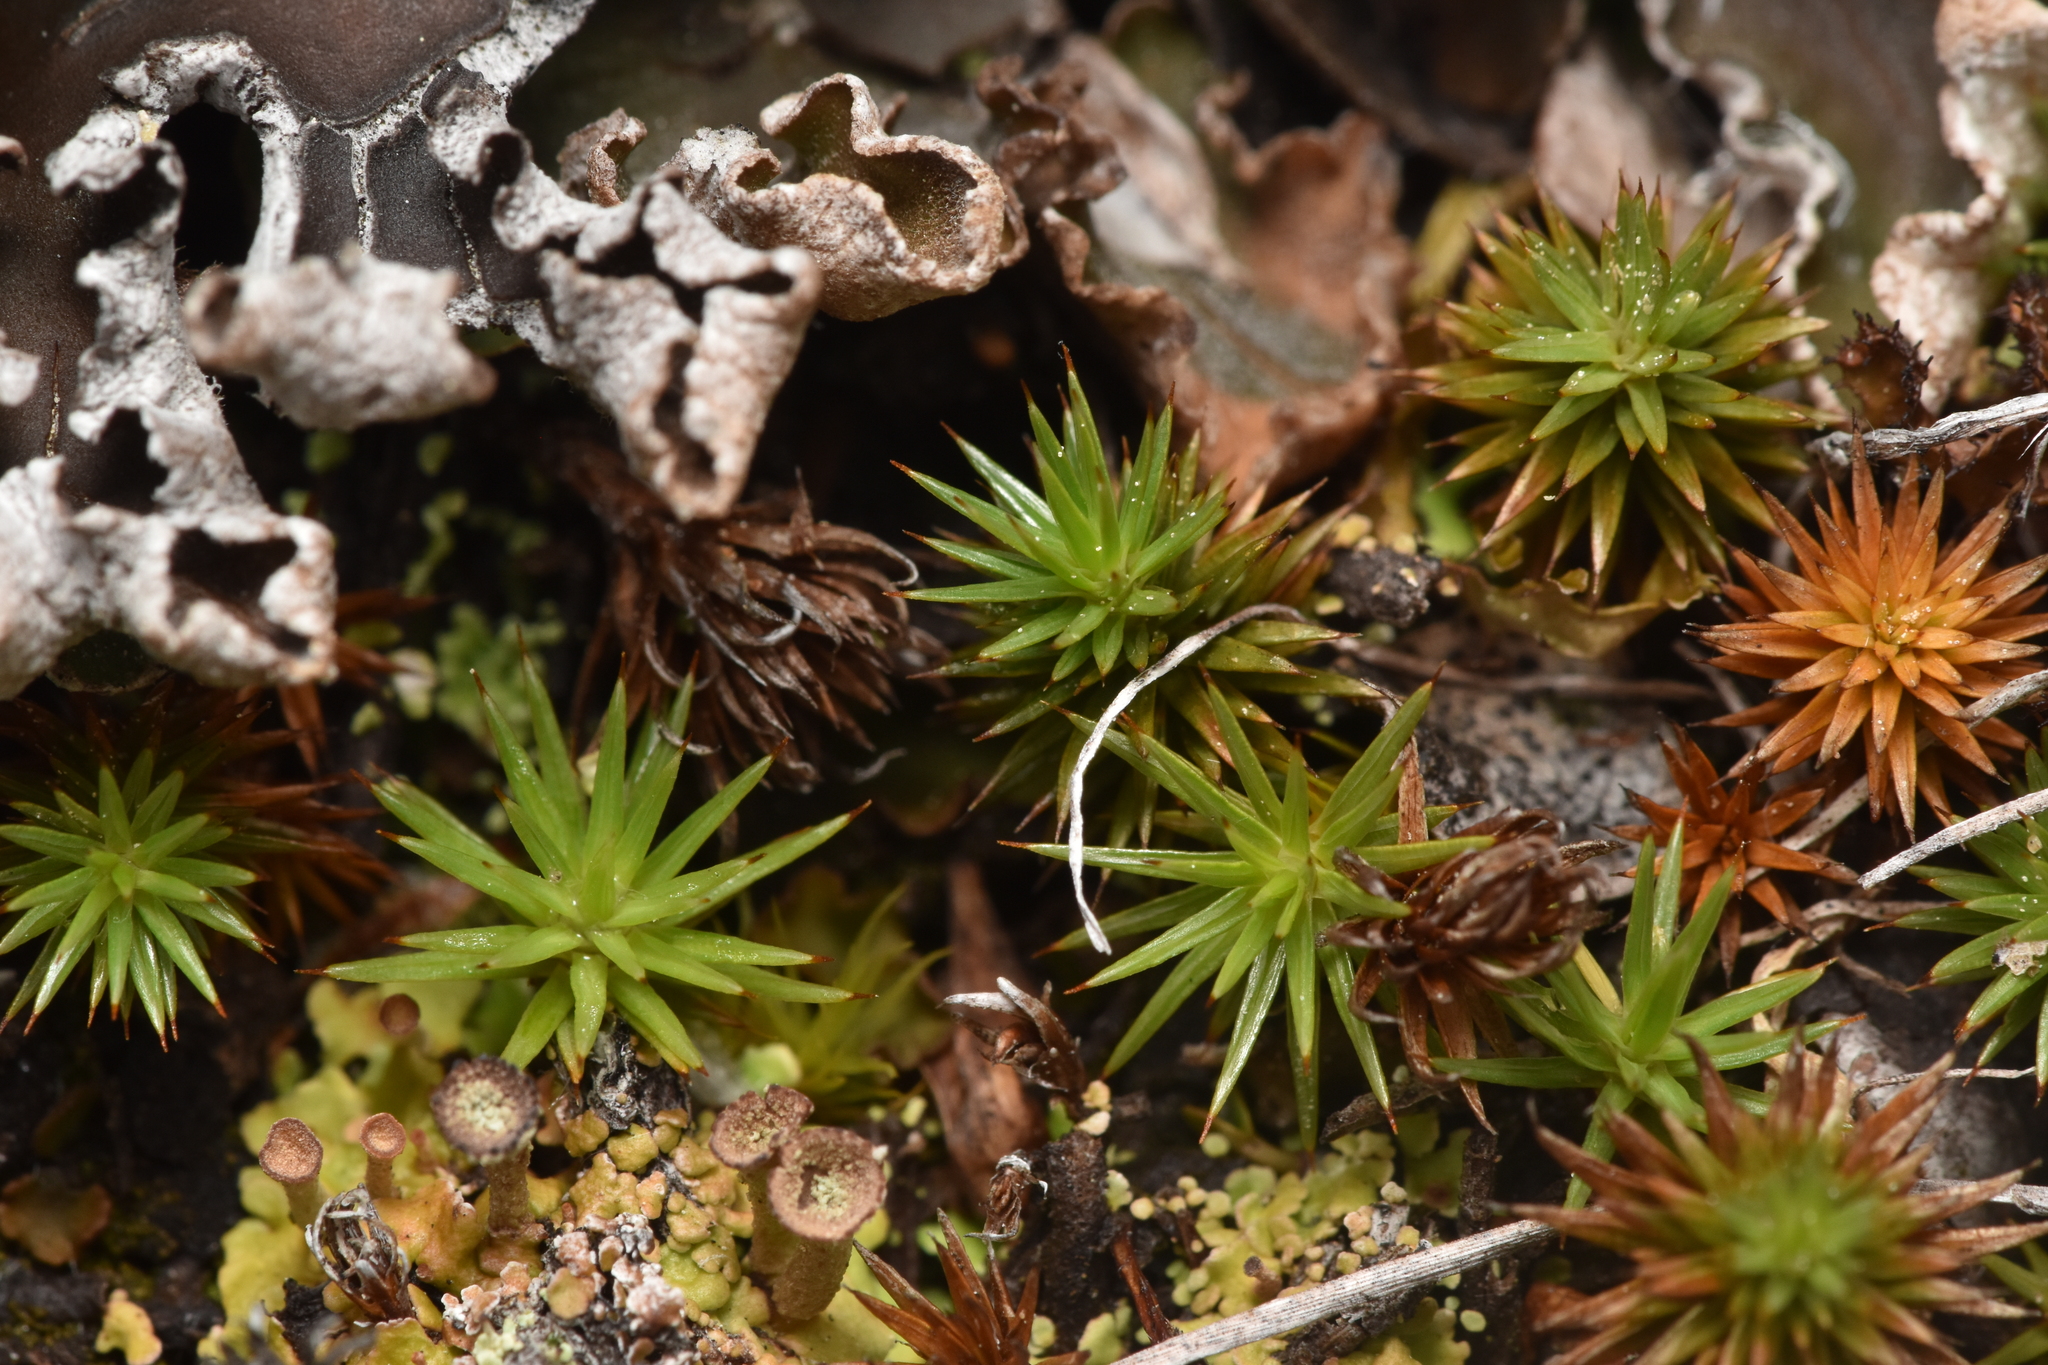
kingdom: Plantae
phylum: Bryophyta
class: Polytrichopsida
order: Polytrichales
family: Polytrichaceae
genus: Polytrichum
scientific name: Polytrichum juniperinum
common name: Juniper haircap moss
